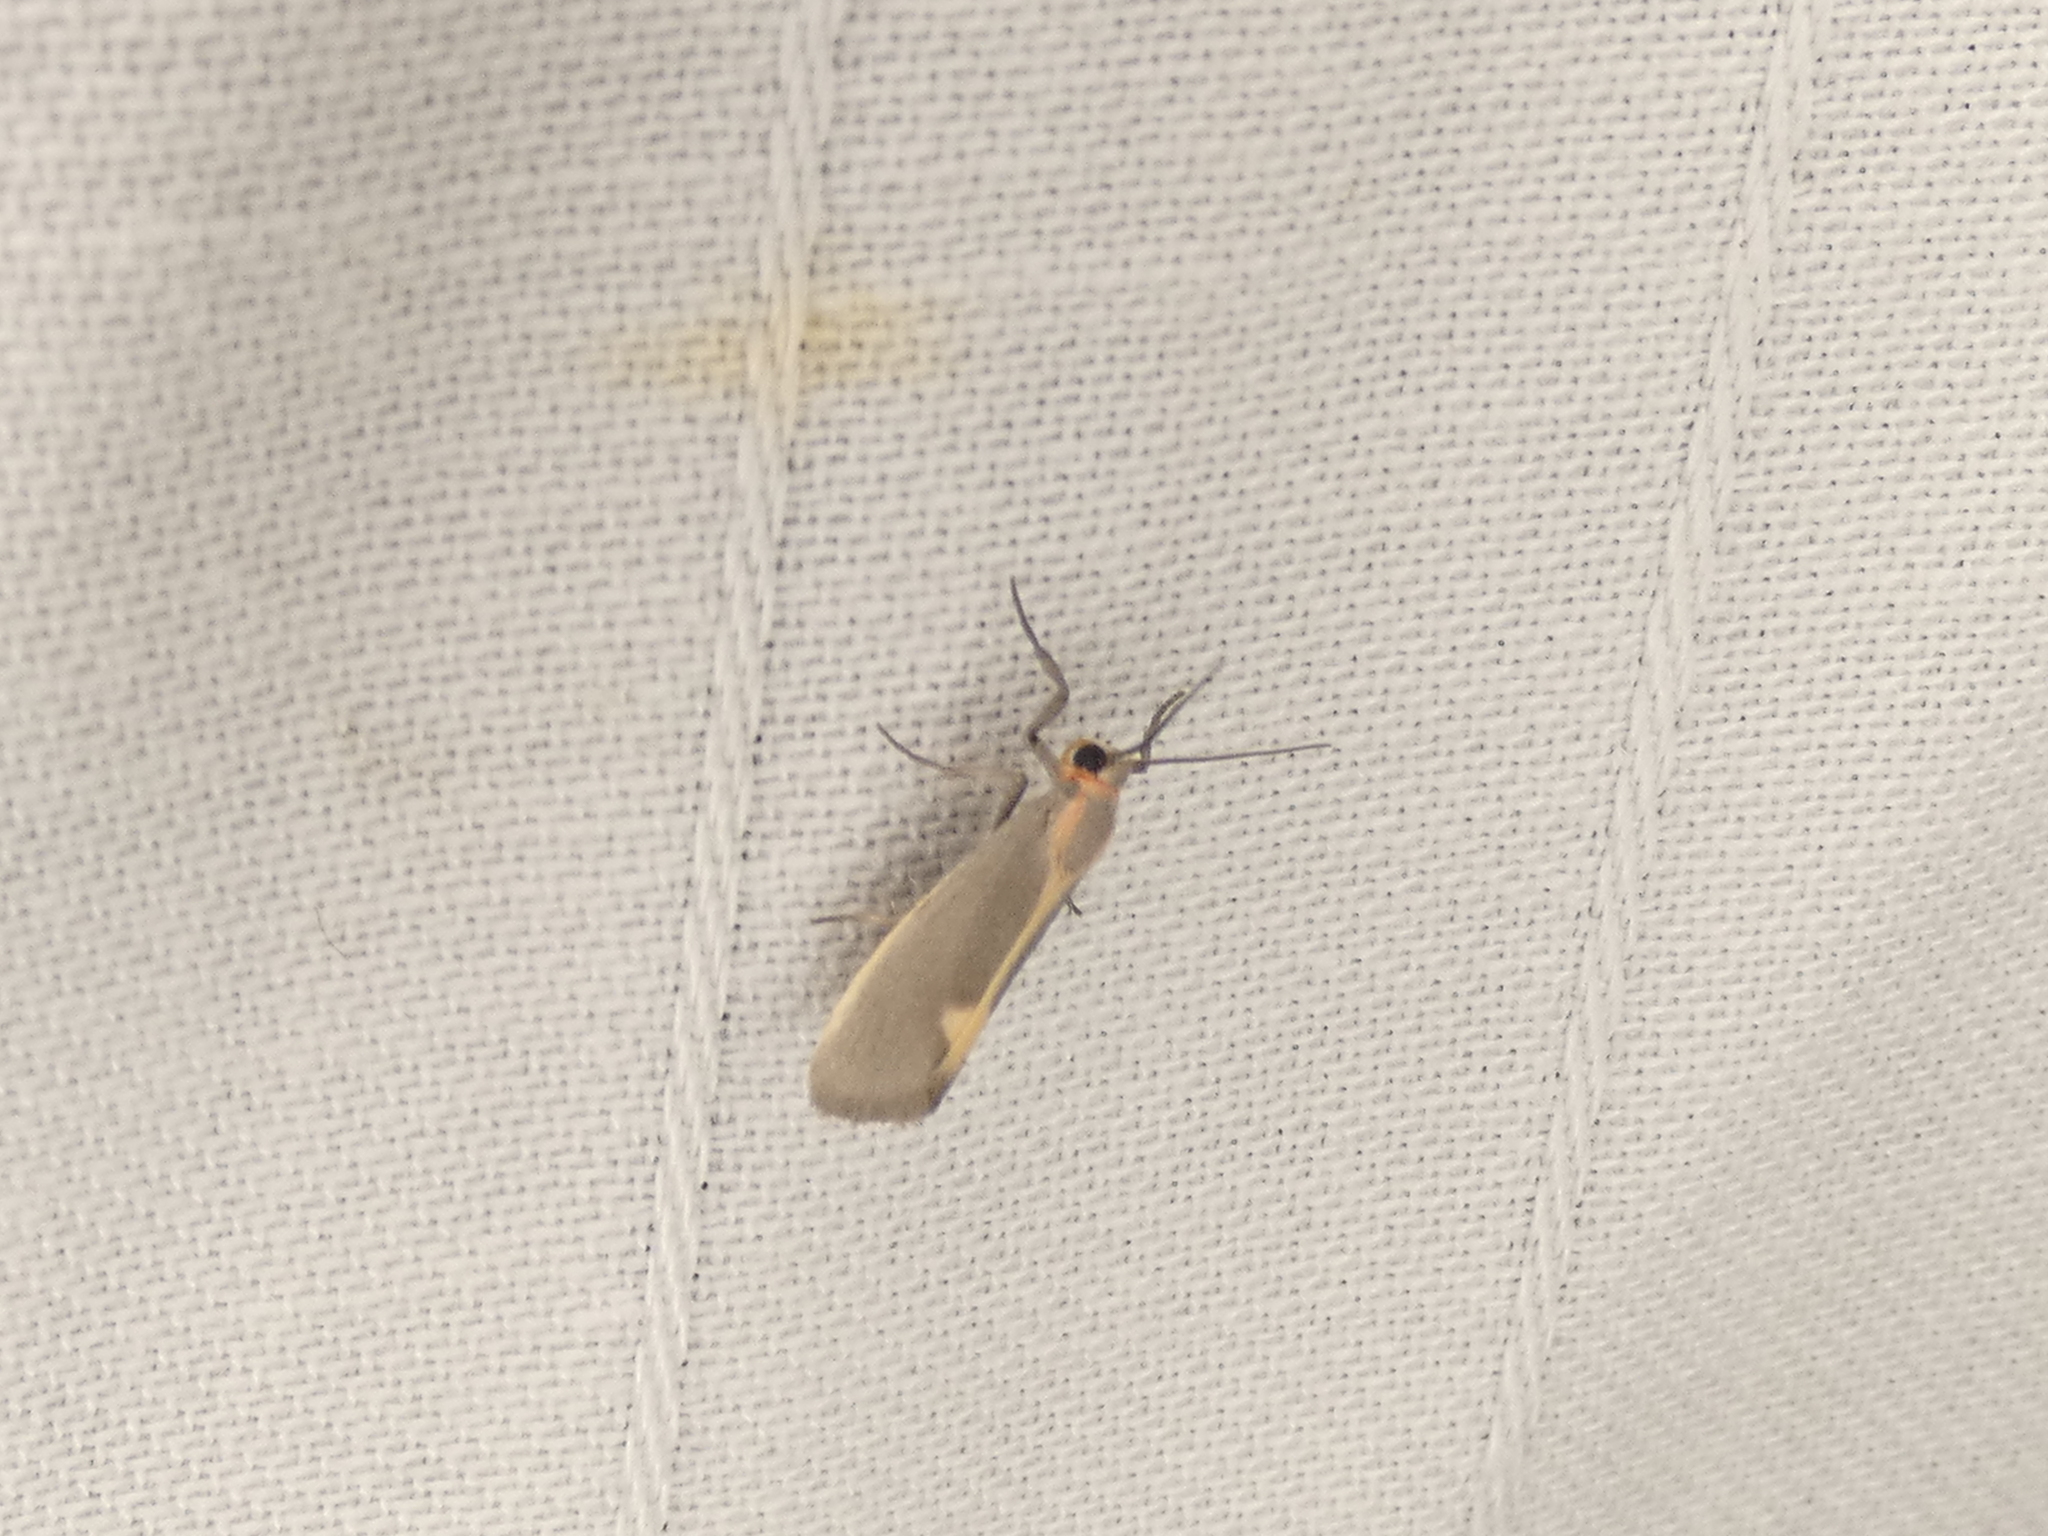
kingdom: Animalia
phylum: Arthropoda
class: Insecta
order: Lepidoptera
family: Erebidae
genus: Cisthene
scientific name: Cisthene plumbea
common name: Lead colored lichen moth
